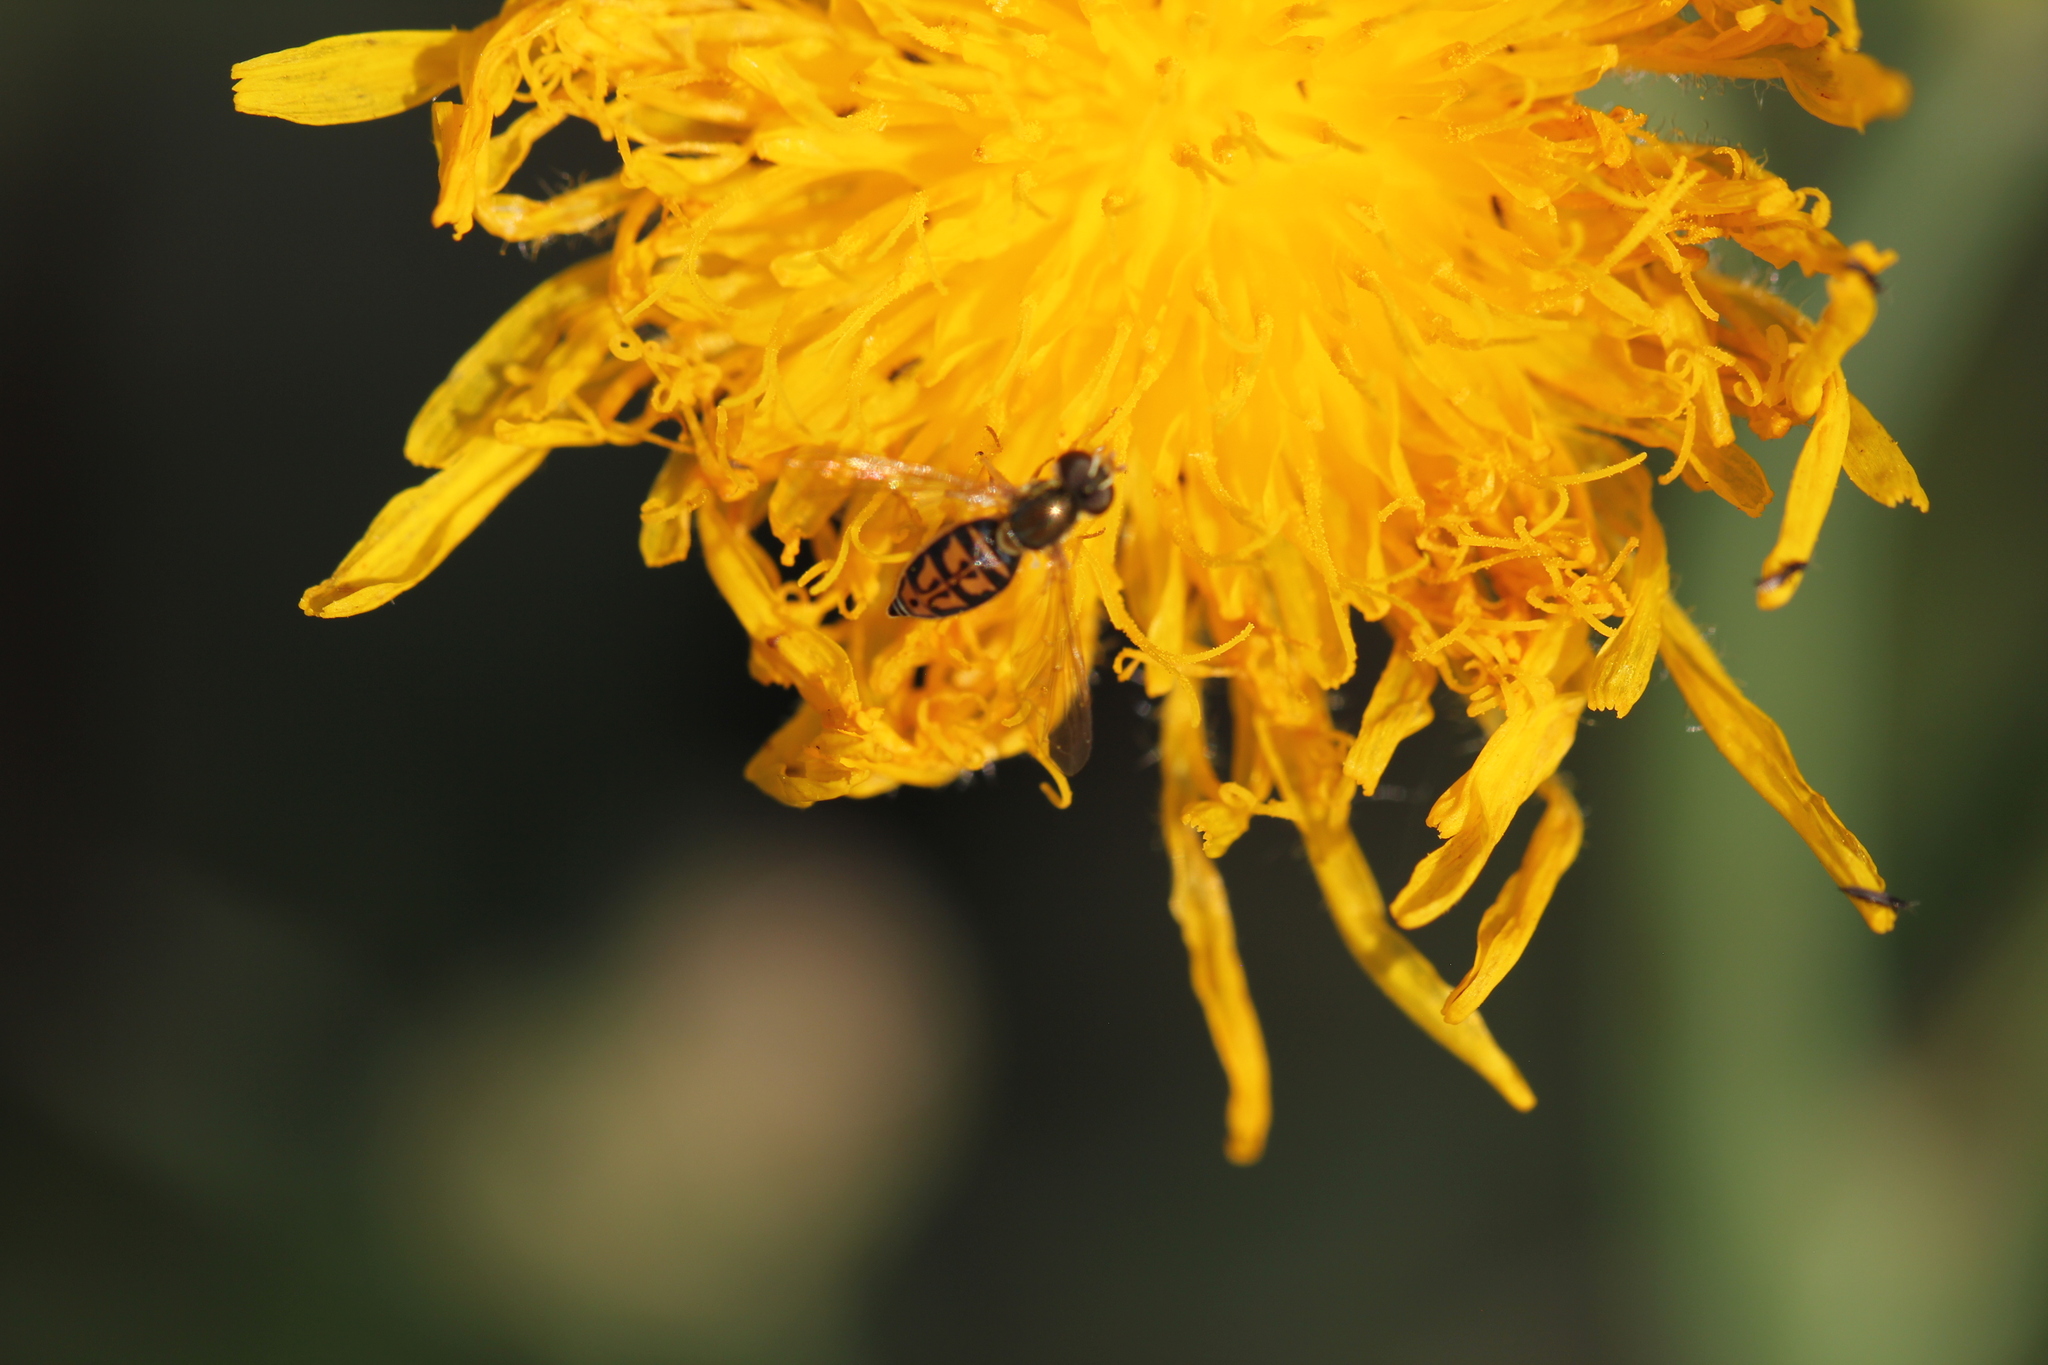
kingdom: Animalia
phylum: Arthropoda
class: Insecta
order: Diptera
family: Syrphidae
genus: Toxomerus
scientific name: Toxomerus marginatus
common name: Syrphid fly
